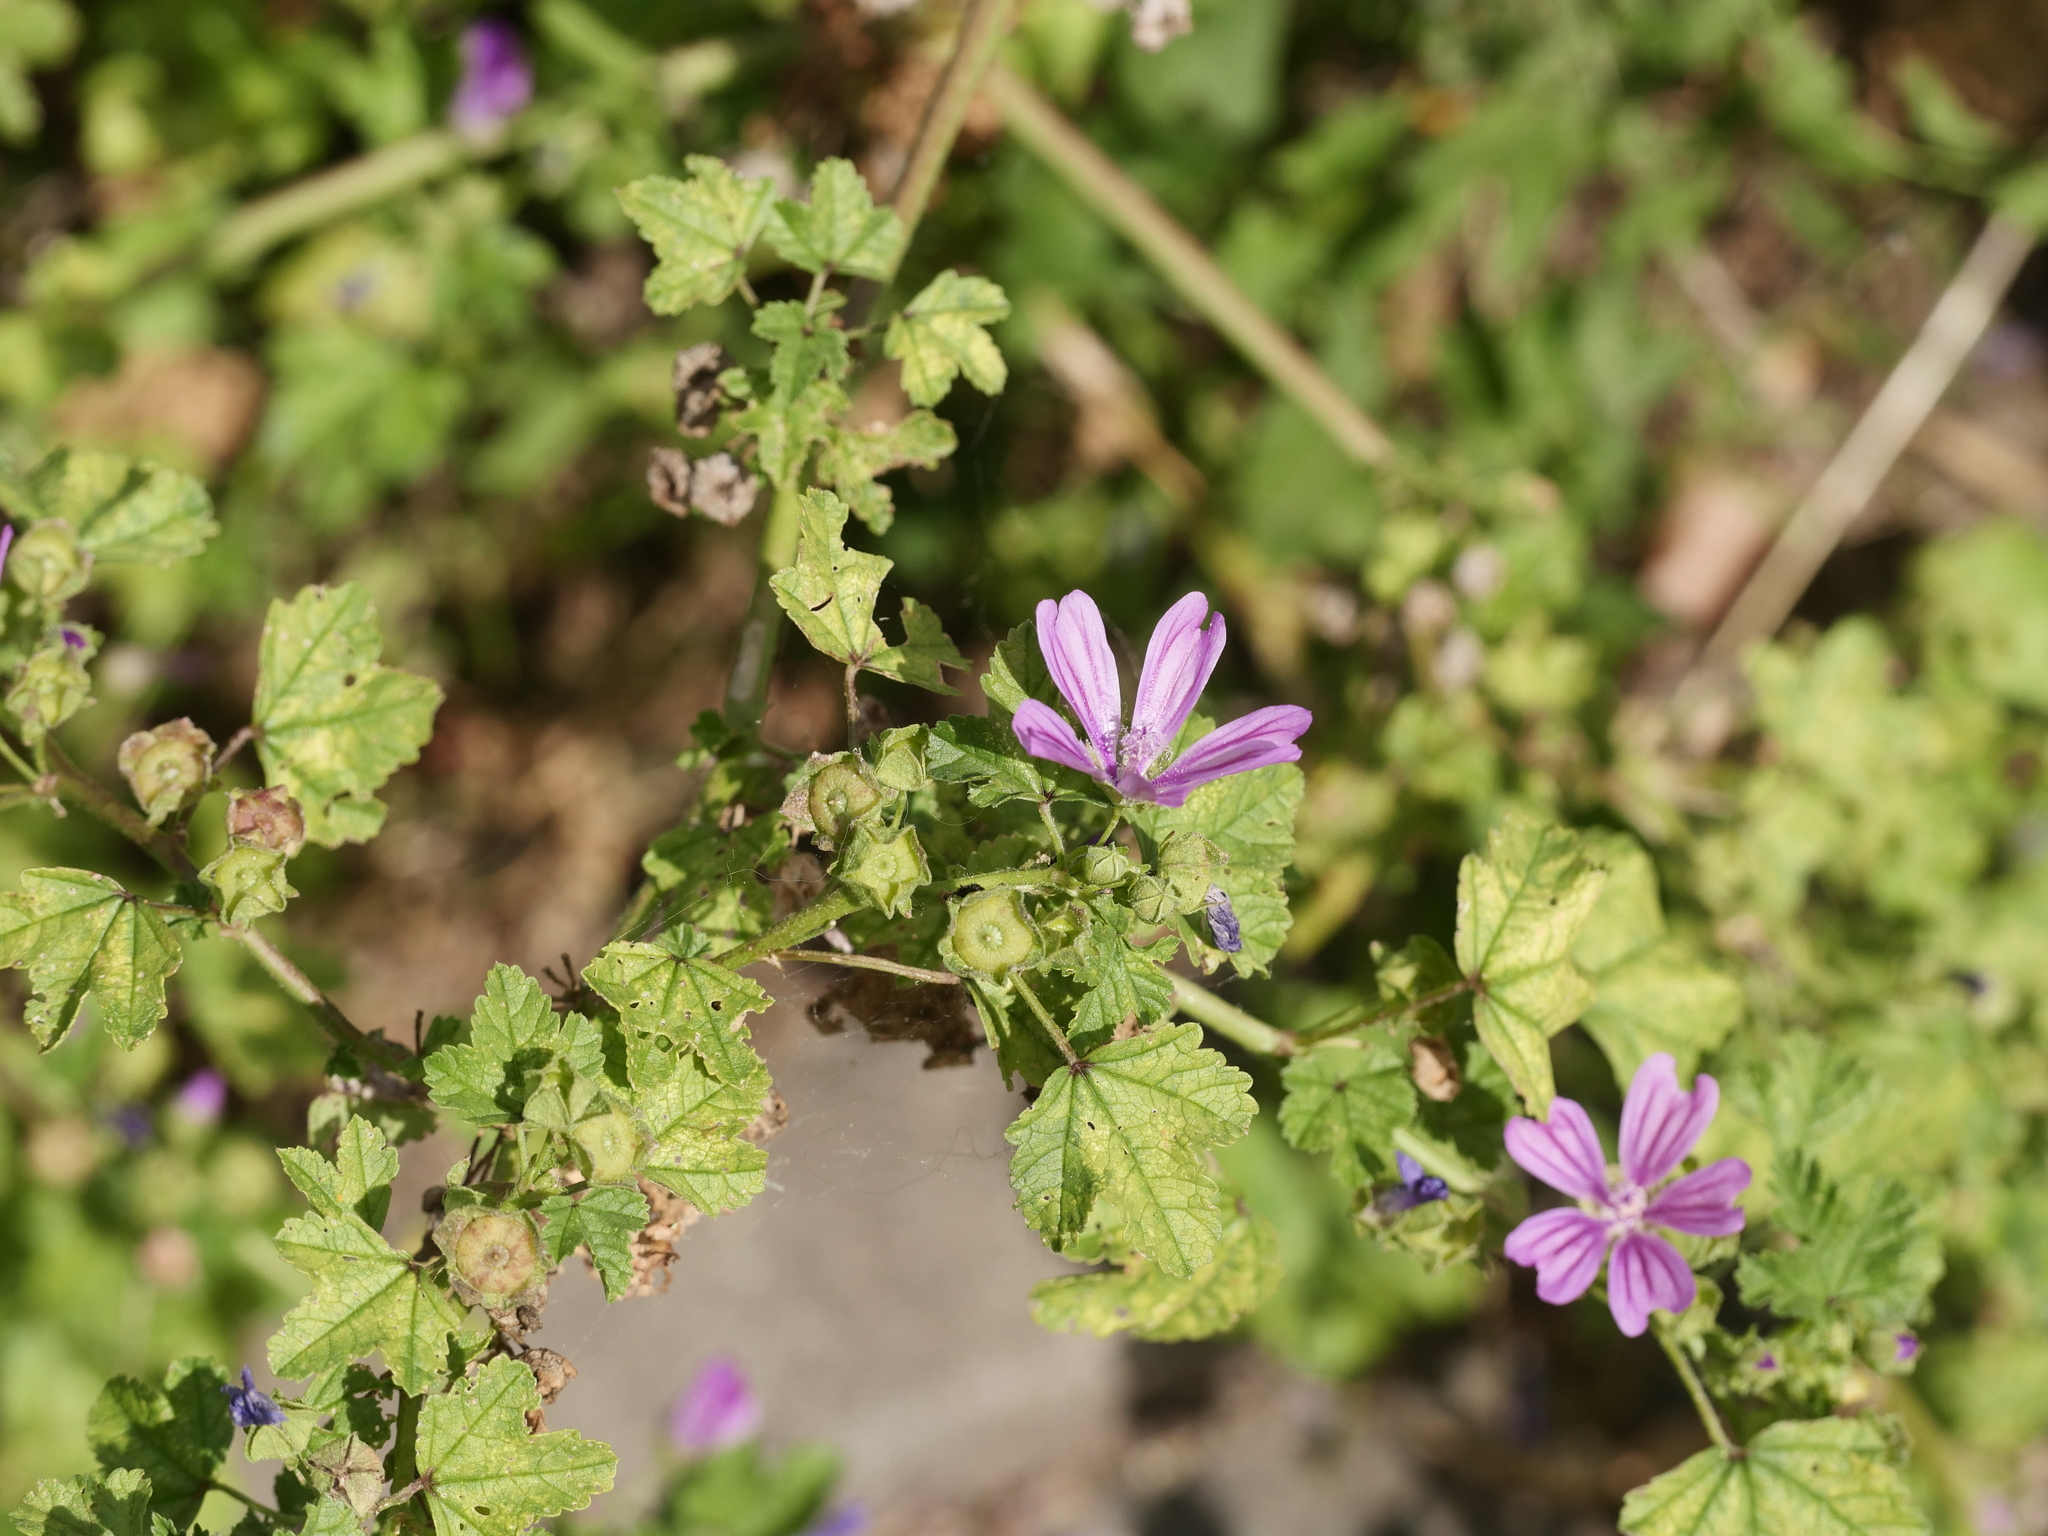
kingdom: Plantae
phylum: Tracheophyta
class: Magnoliopsida
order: Malvales
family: Malvaceae
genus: Malva
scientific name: Malva sylvestris
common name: Common mallow
